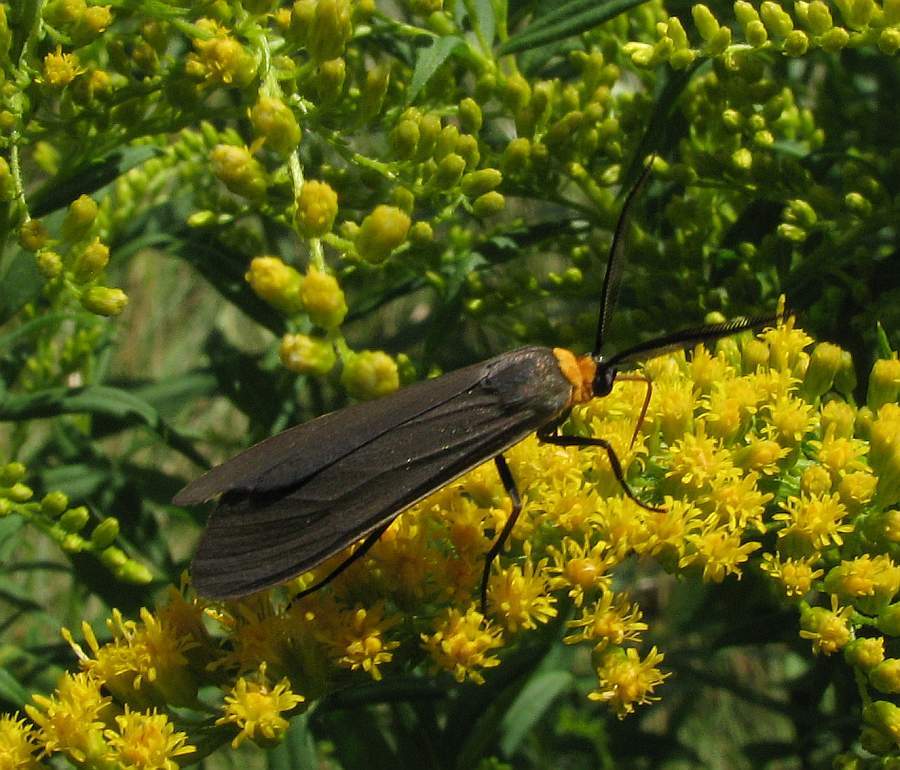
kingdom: Animalia
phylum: Arthropoda
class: Insecta
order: Lepidoptera
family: Erebidae
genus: Cisseps
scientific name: Cisseps fulvicollis
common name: Yellow-collared scape moth
